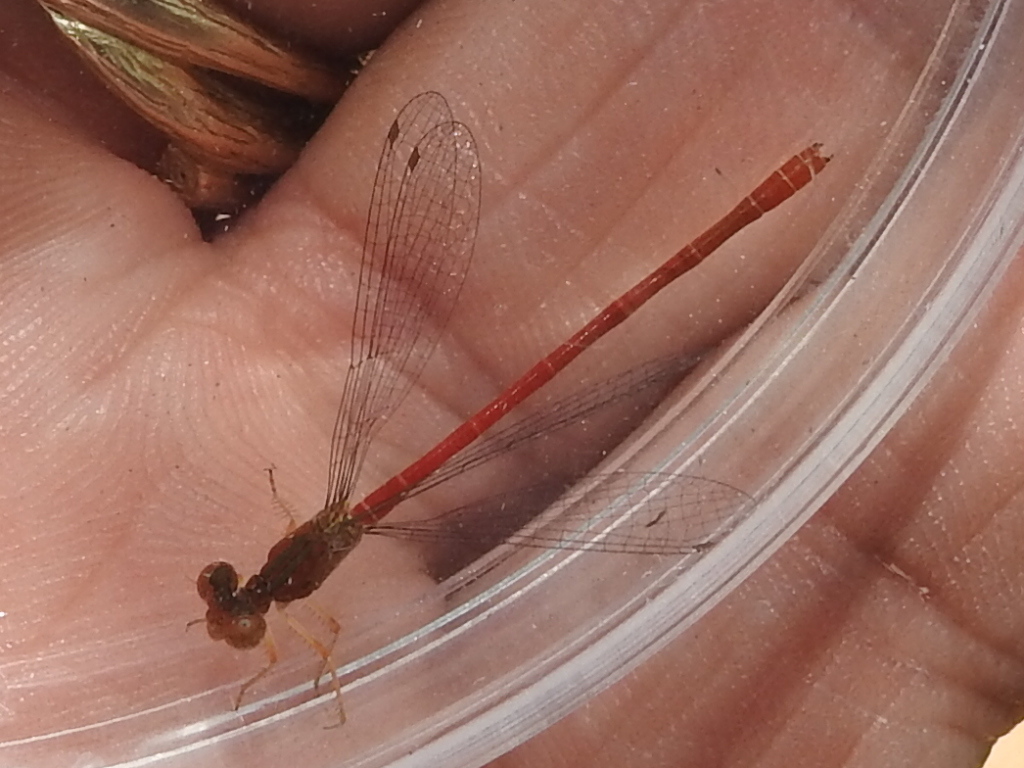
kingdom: Animalia
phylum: Arthropoda
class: Insecta
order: Odonata
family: Coenagrionidae
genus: Telebasis
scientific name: Telebasis salva
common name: Desert firetail
